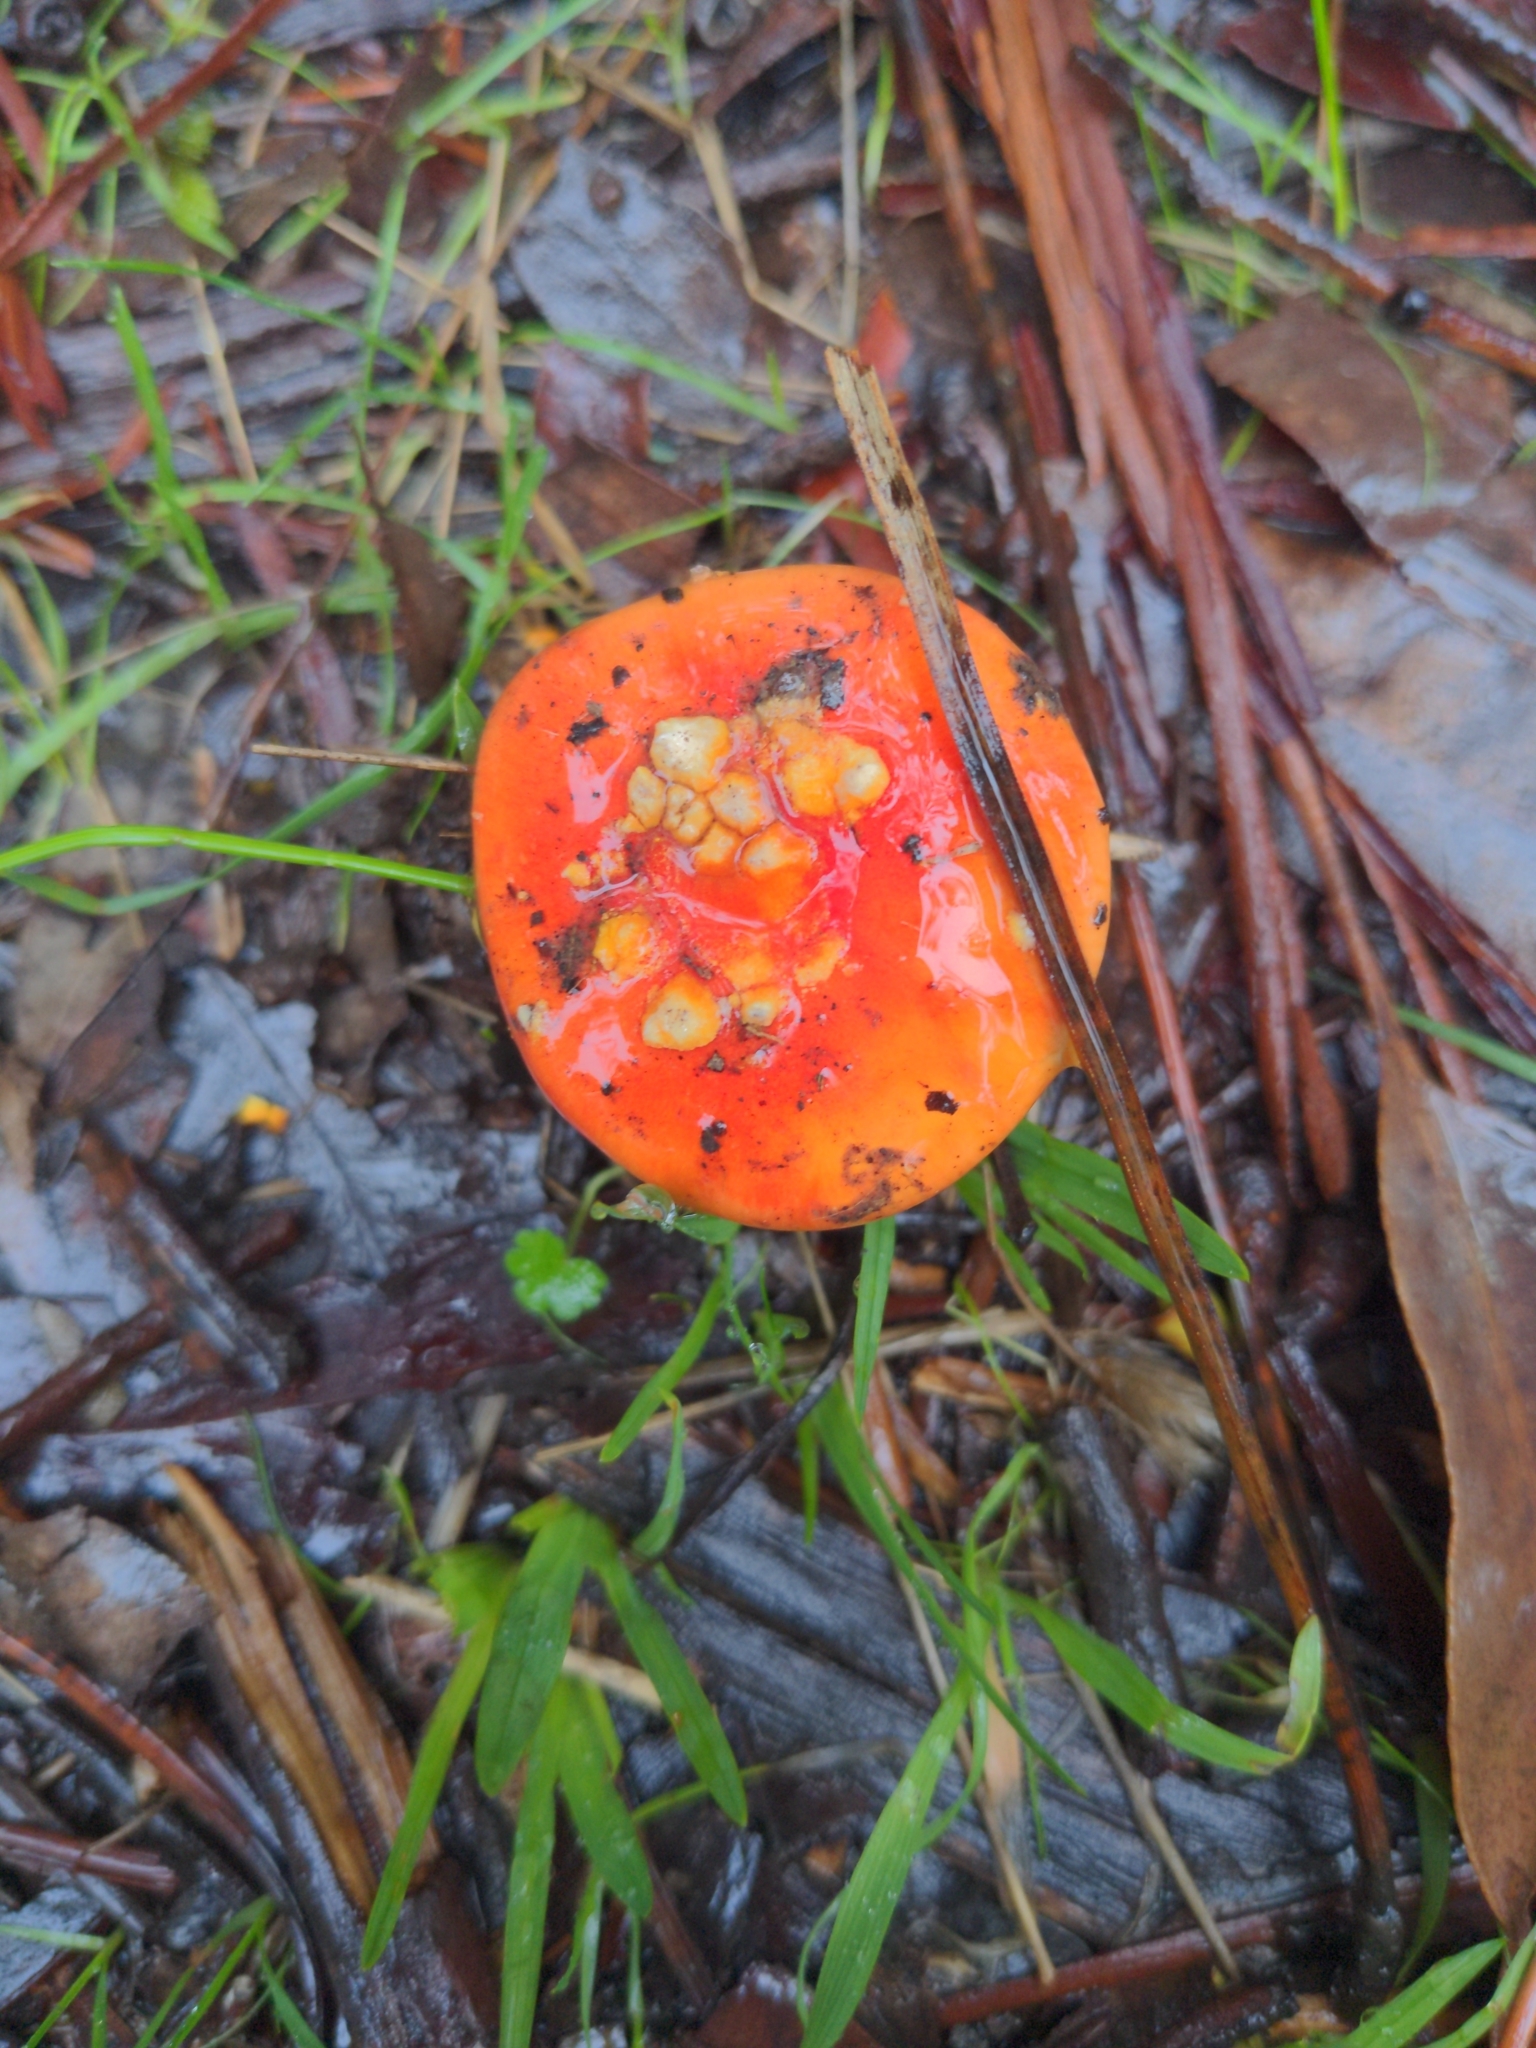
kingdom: Fungi
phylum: Basidiomycota
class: Agaricomycetes
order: Agaricales
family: Amanitaceae
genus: Amanita
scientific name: Amanita xanthocephala
